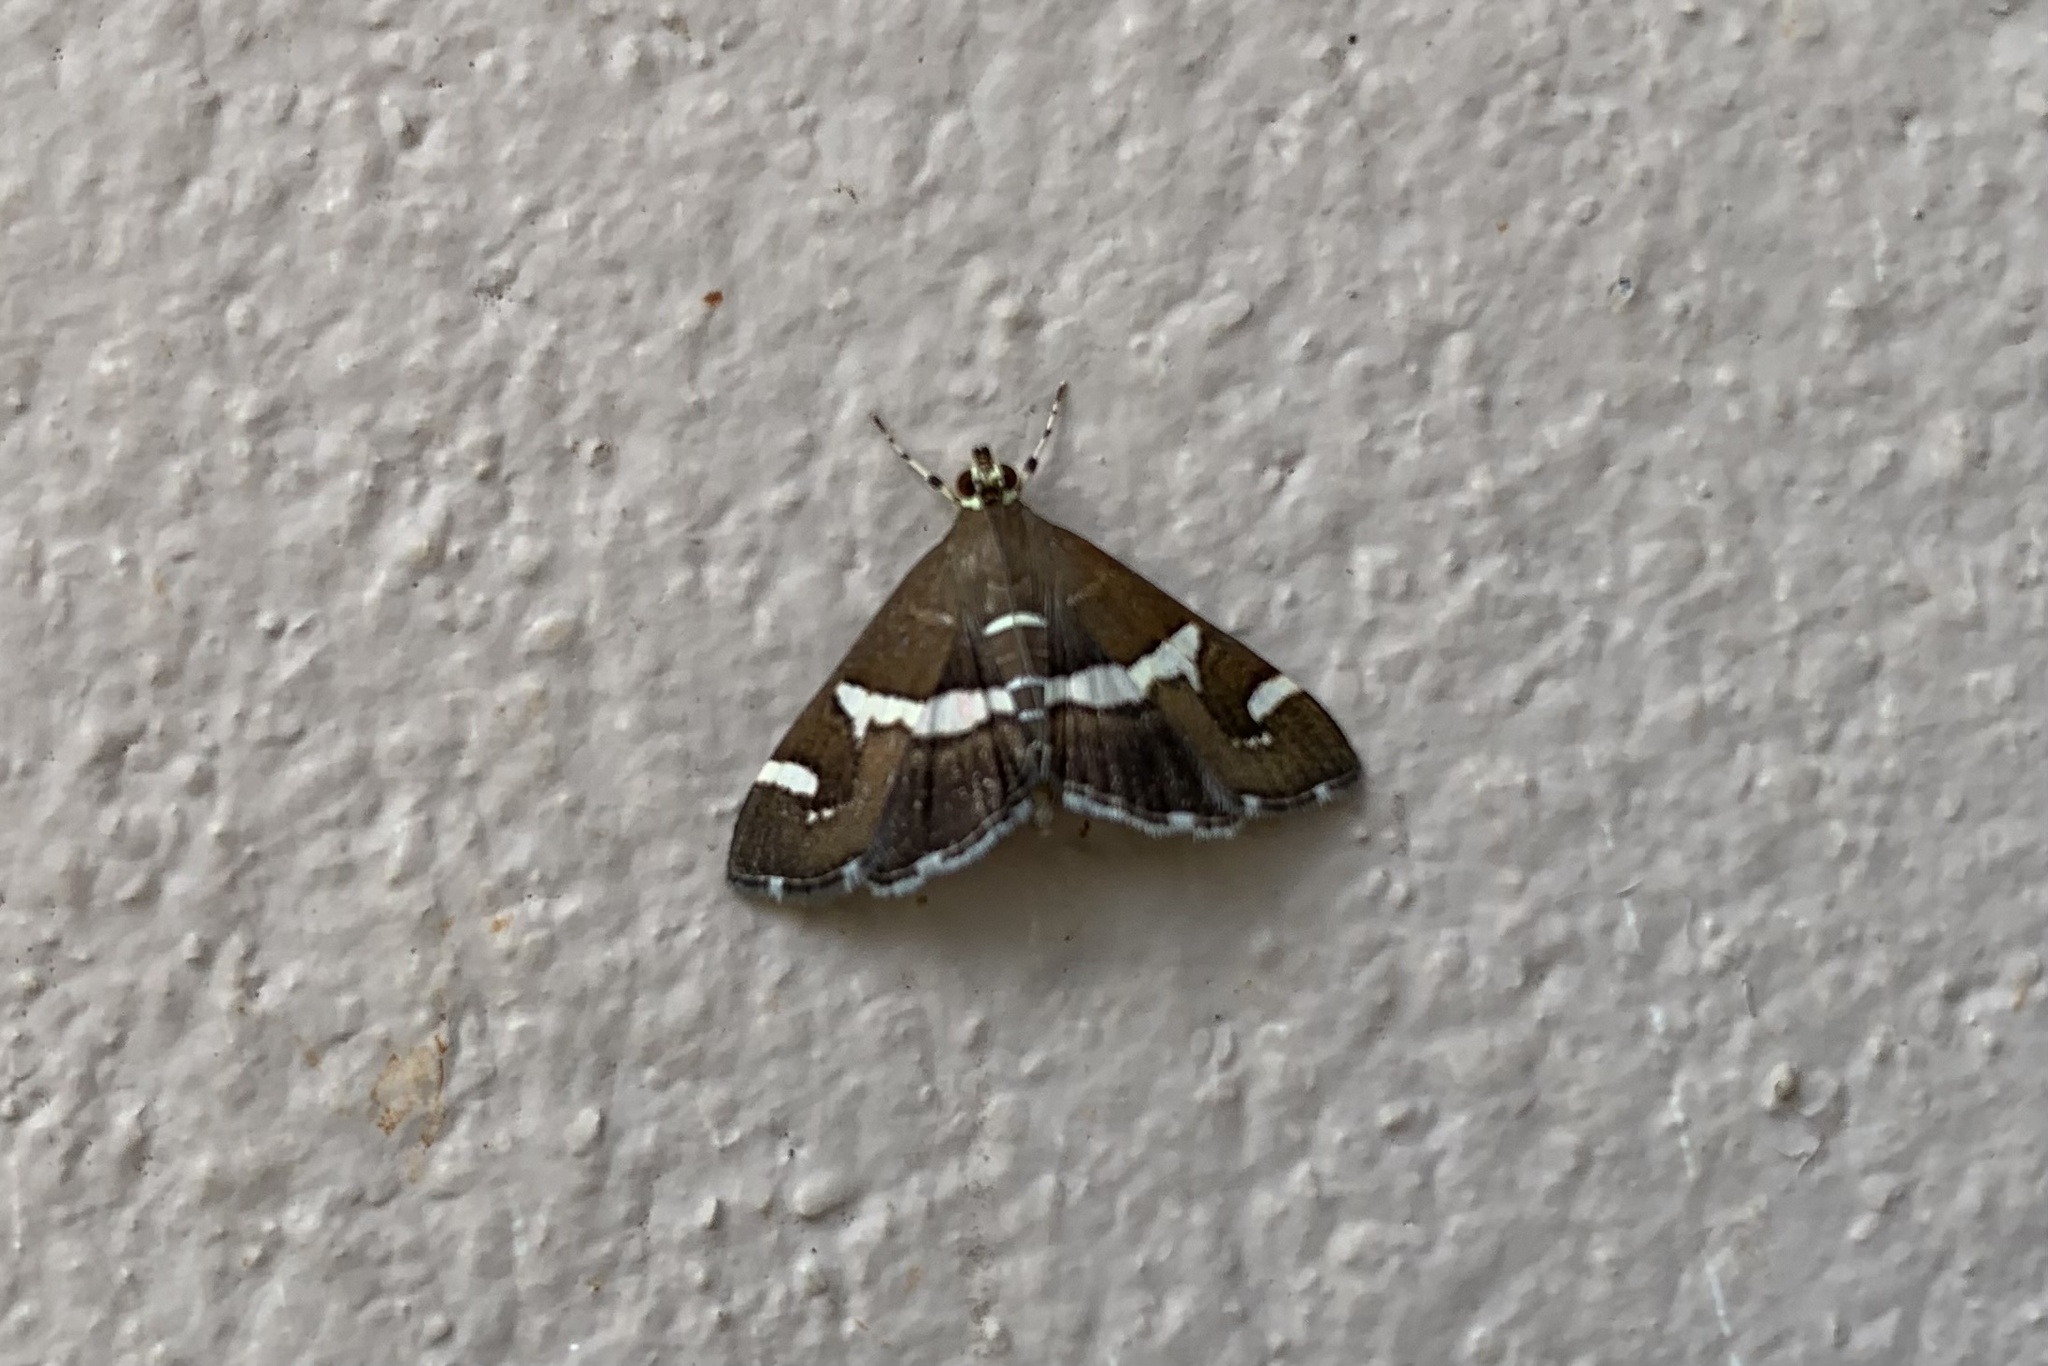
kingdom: Animalia
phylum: Arthropoda
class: Insecta
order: Lepidoptera
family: Crambidae
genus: Spoladea
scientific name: Spoladea recurvalis
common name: Beet webworm moth
